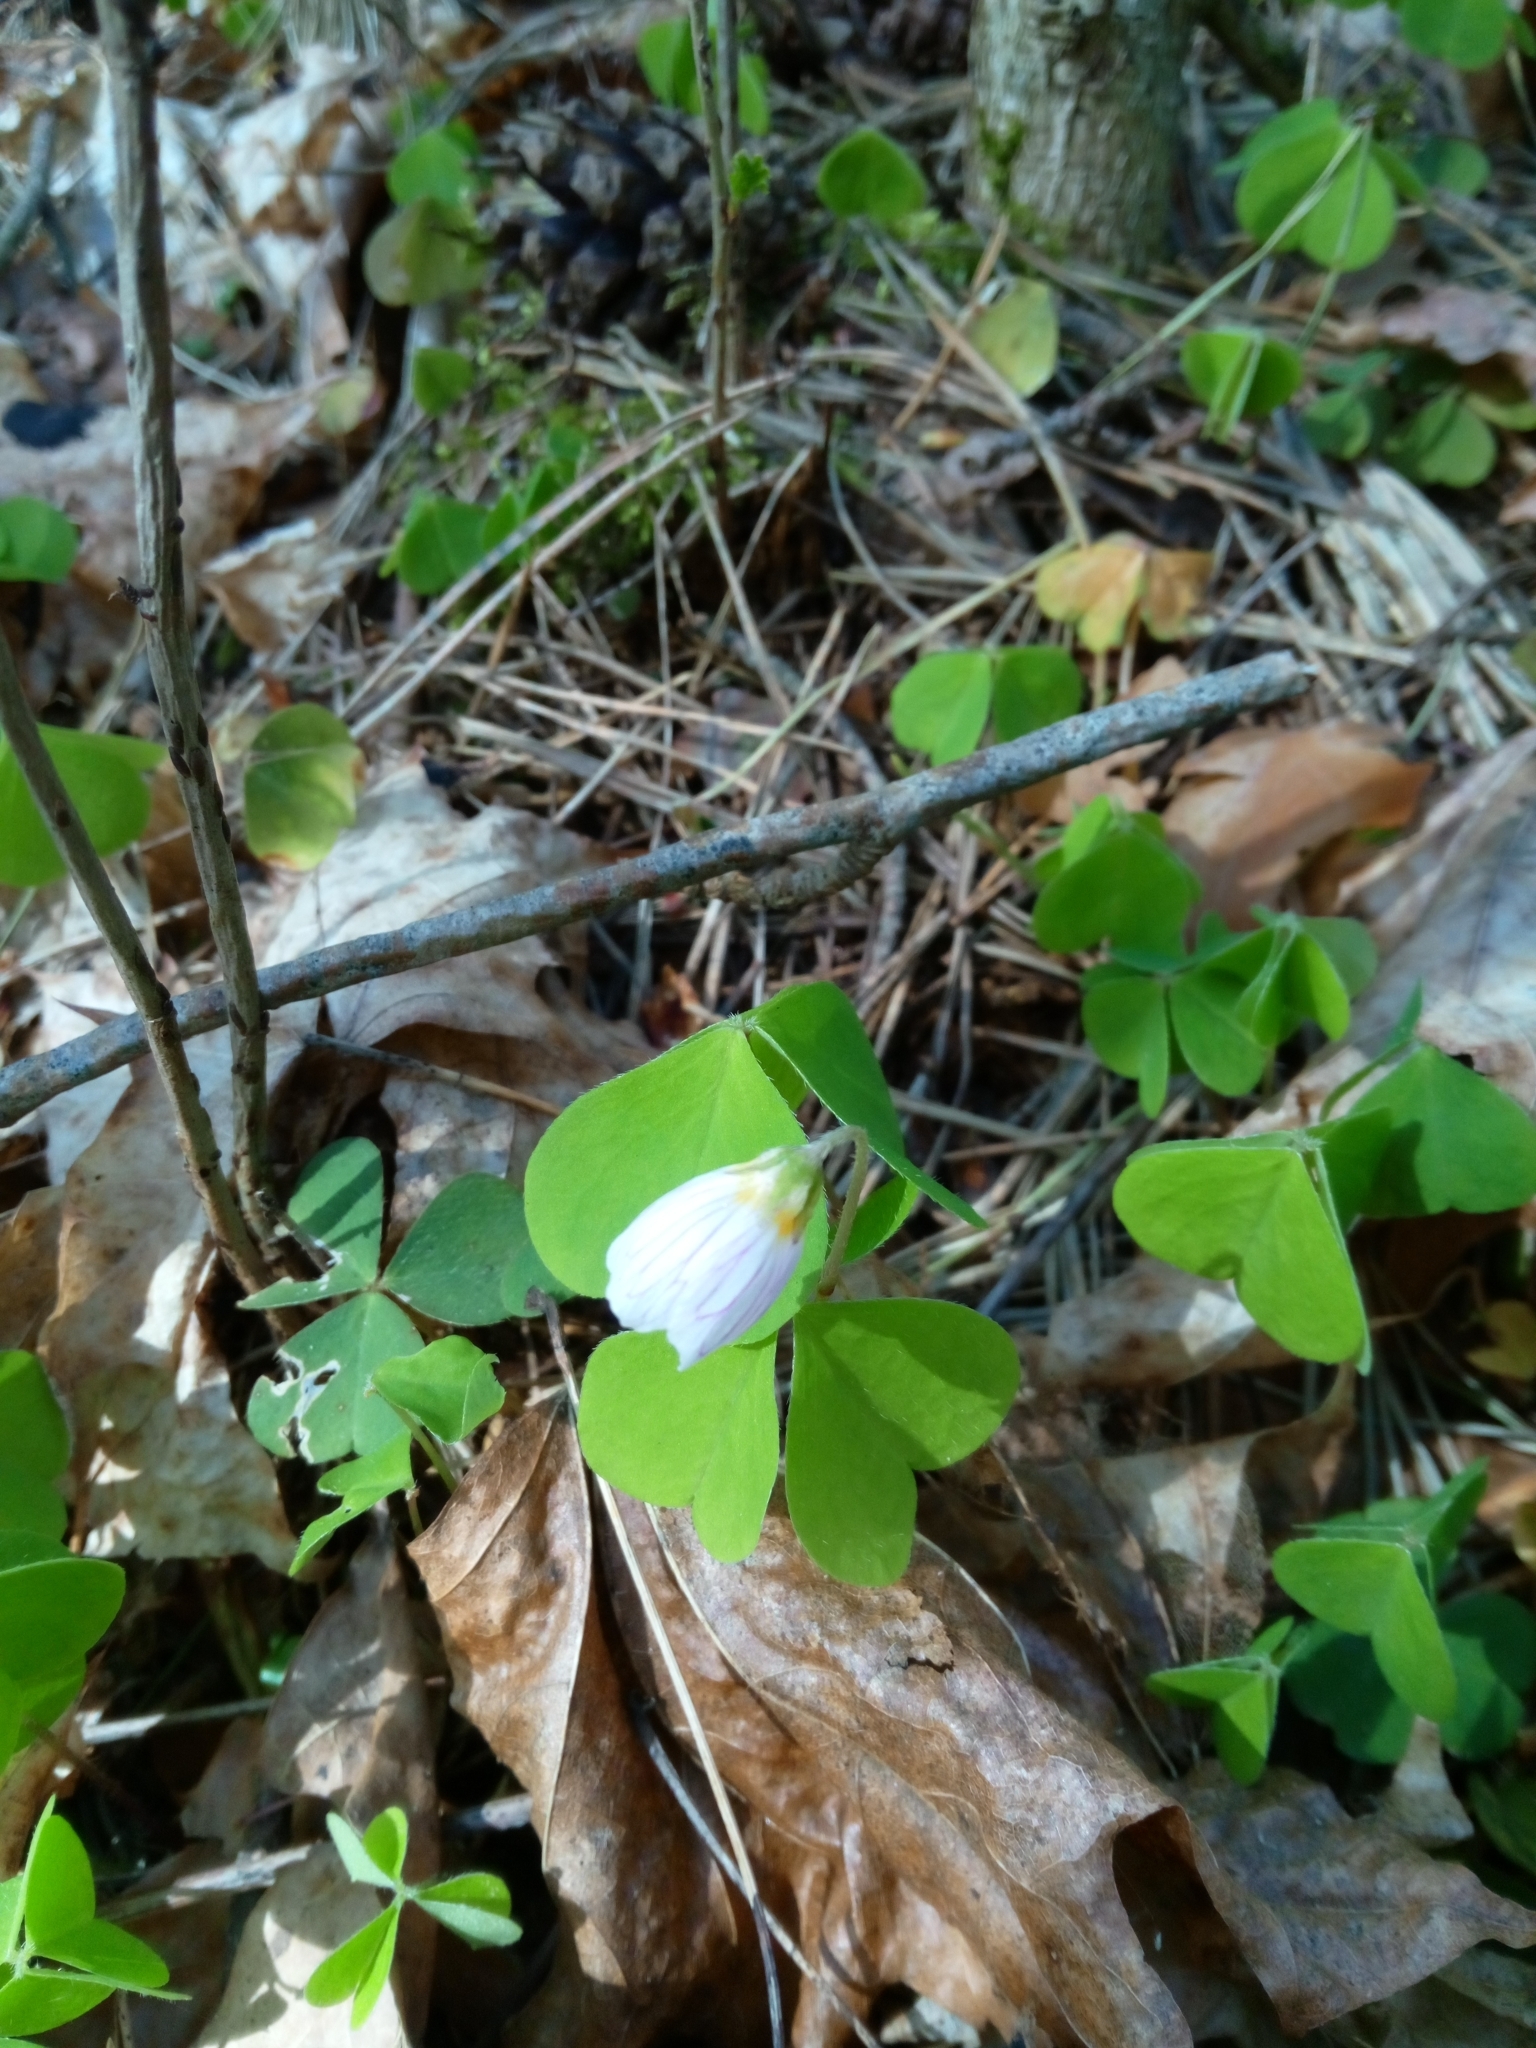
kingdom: Plantae
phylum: Tracheophyta
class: Magnoliopsida
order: Oxalidales
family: Oxalidaceae
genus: Oxalis
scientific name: Oxalis acetosella
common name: Wood-sorrel
